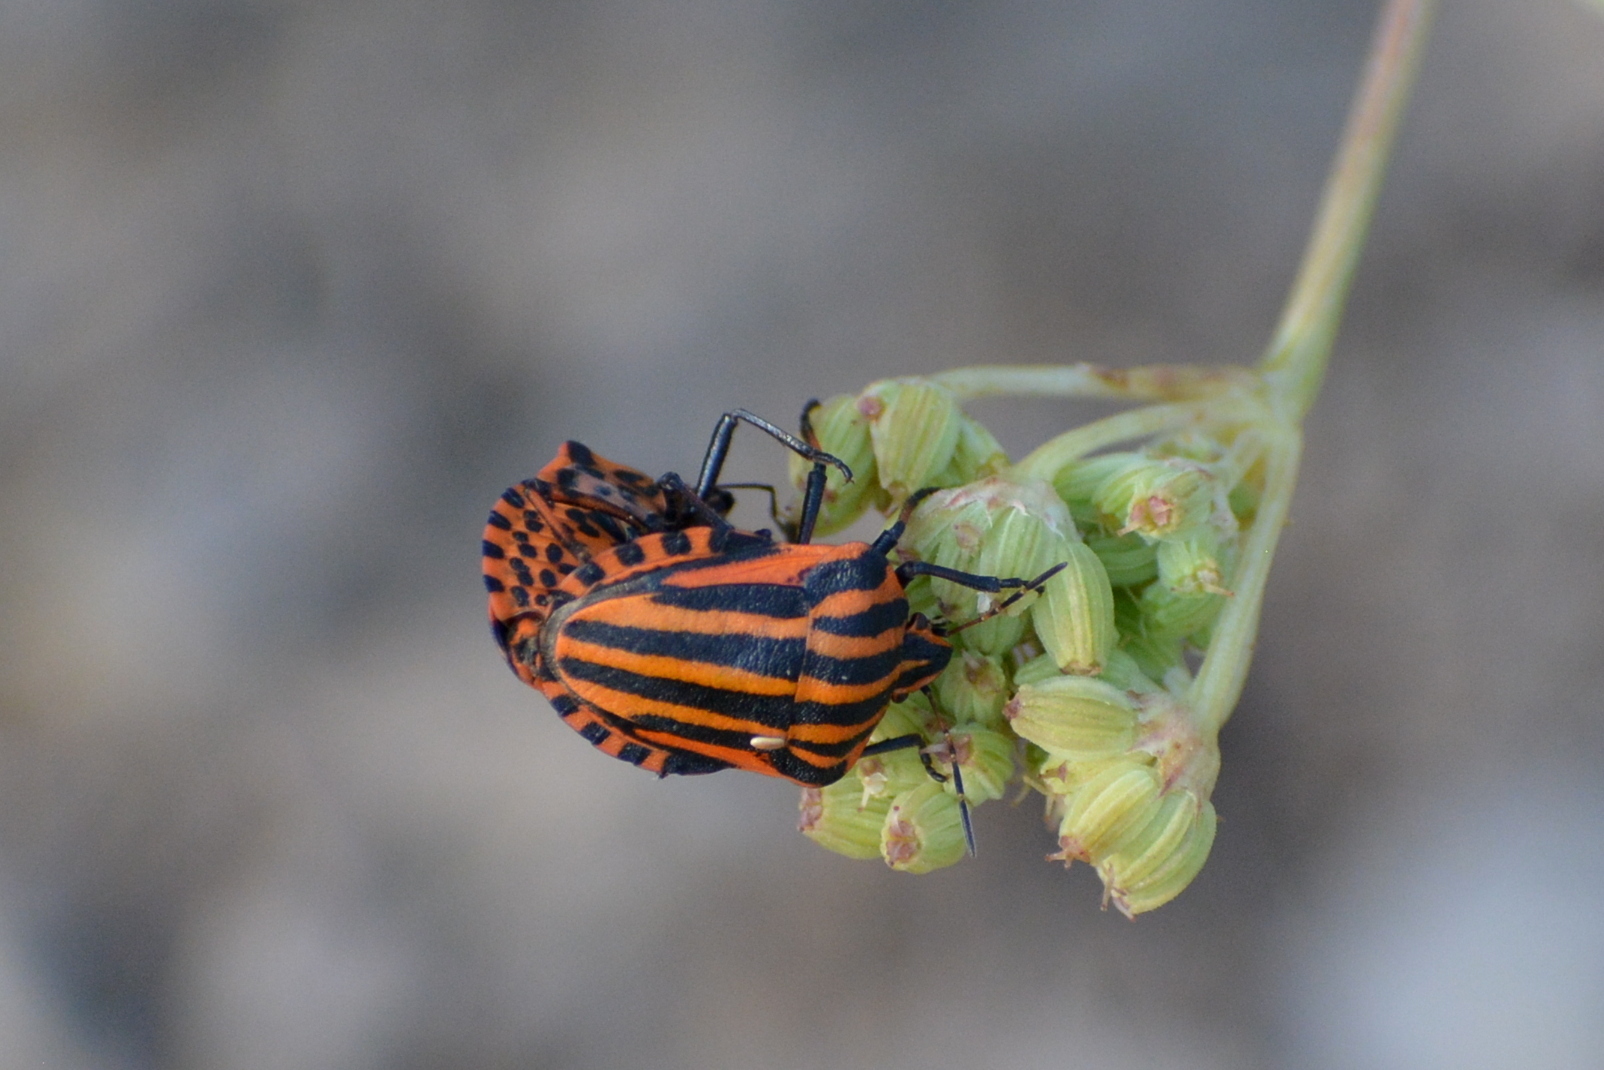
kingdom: Animalia
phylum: Arthropoda
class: Insecta
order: Hemiptera
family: Pentatomidae
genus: Graphosoma
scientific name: Graphosoma italicum
